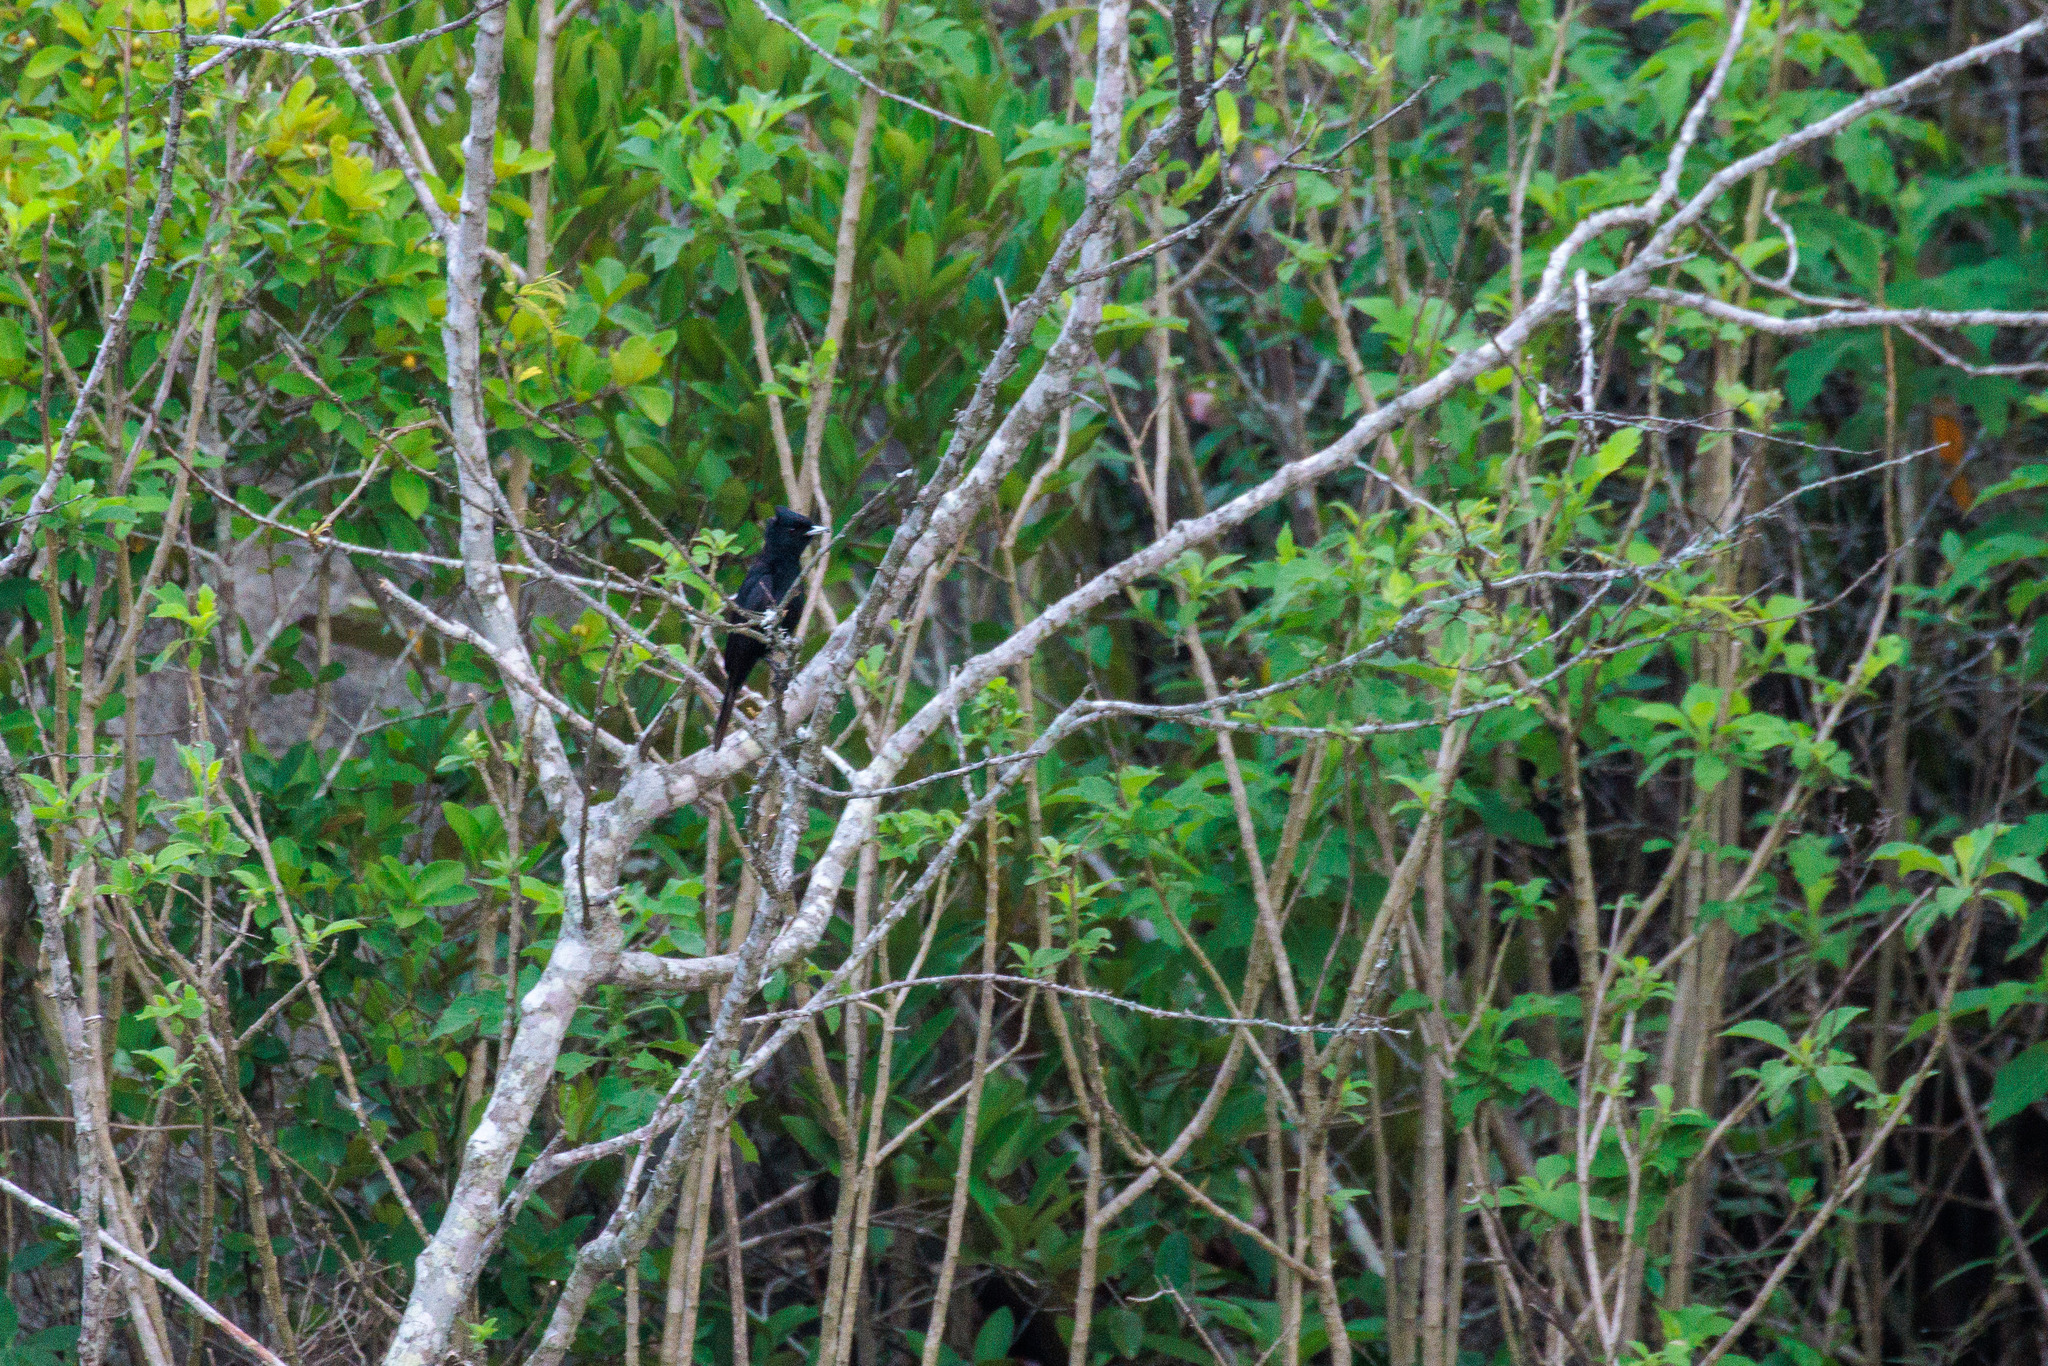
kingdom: Animalia
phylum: Chordata
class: Aves
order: Passeriformes
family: Tyrannidae
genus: Knipolegus
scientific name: Knipolegus nigerrimus
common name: Velvety black tyrant
